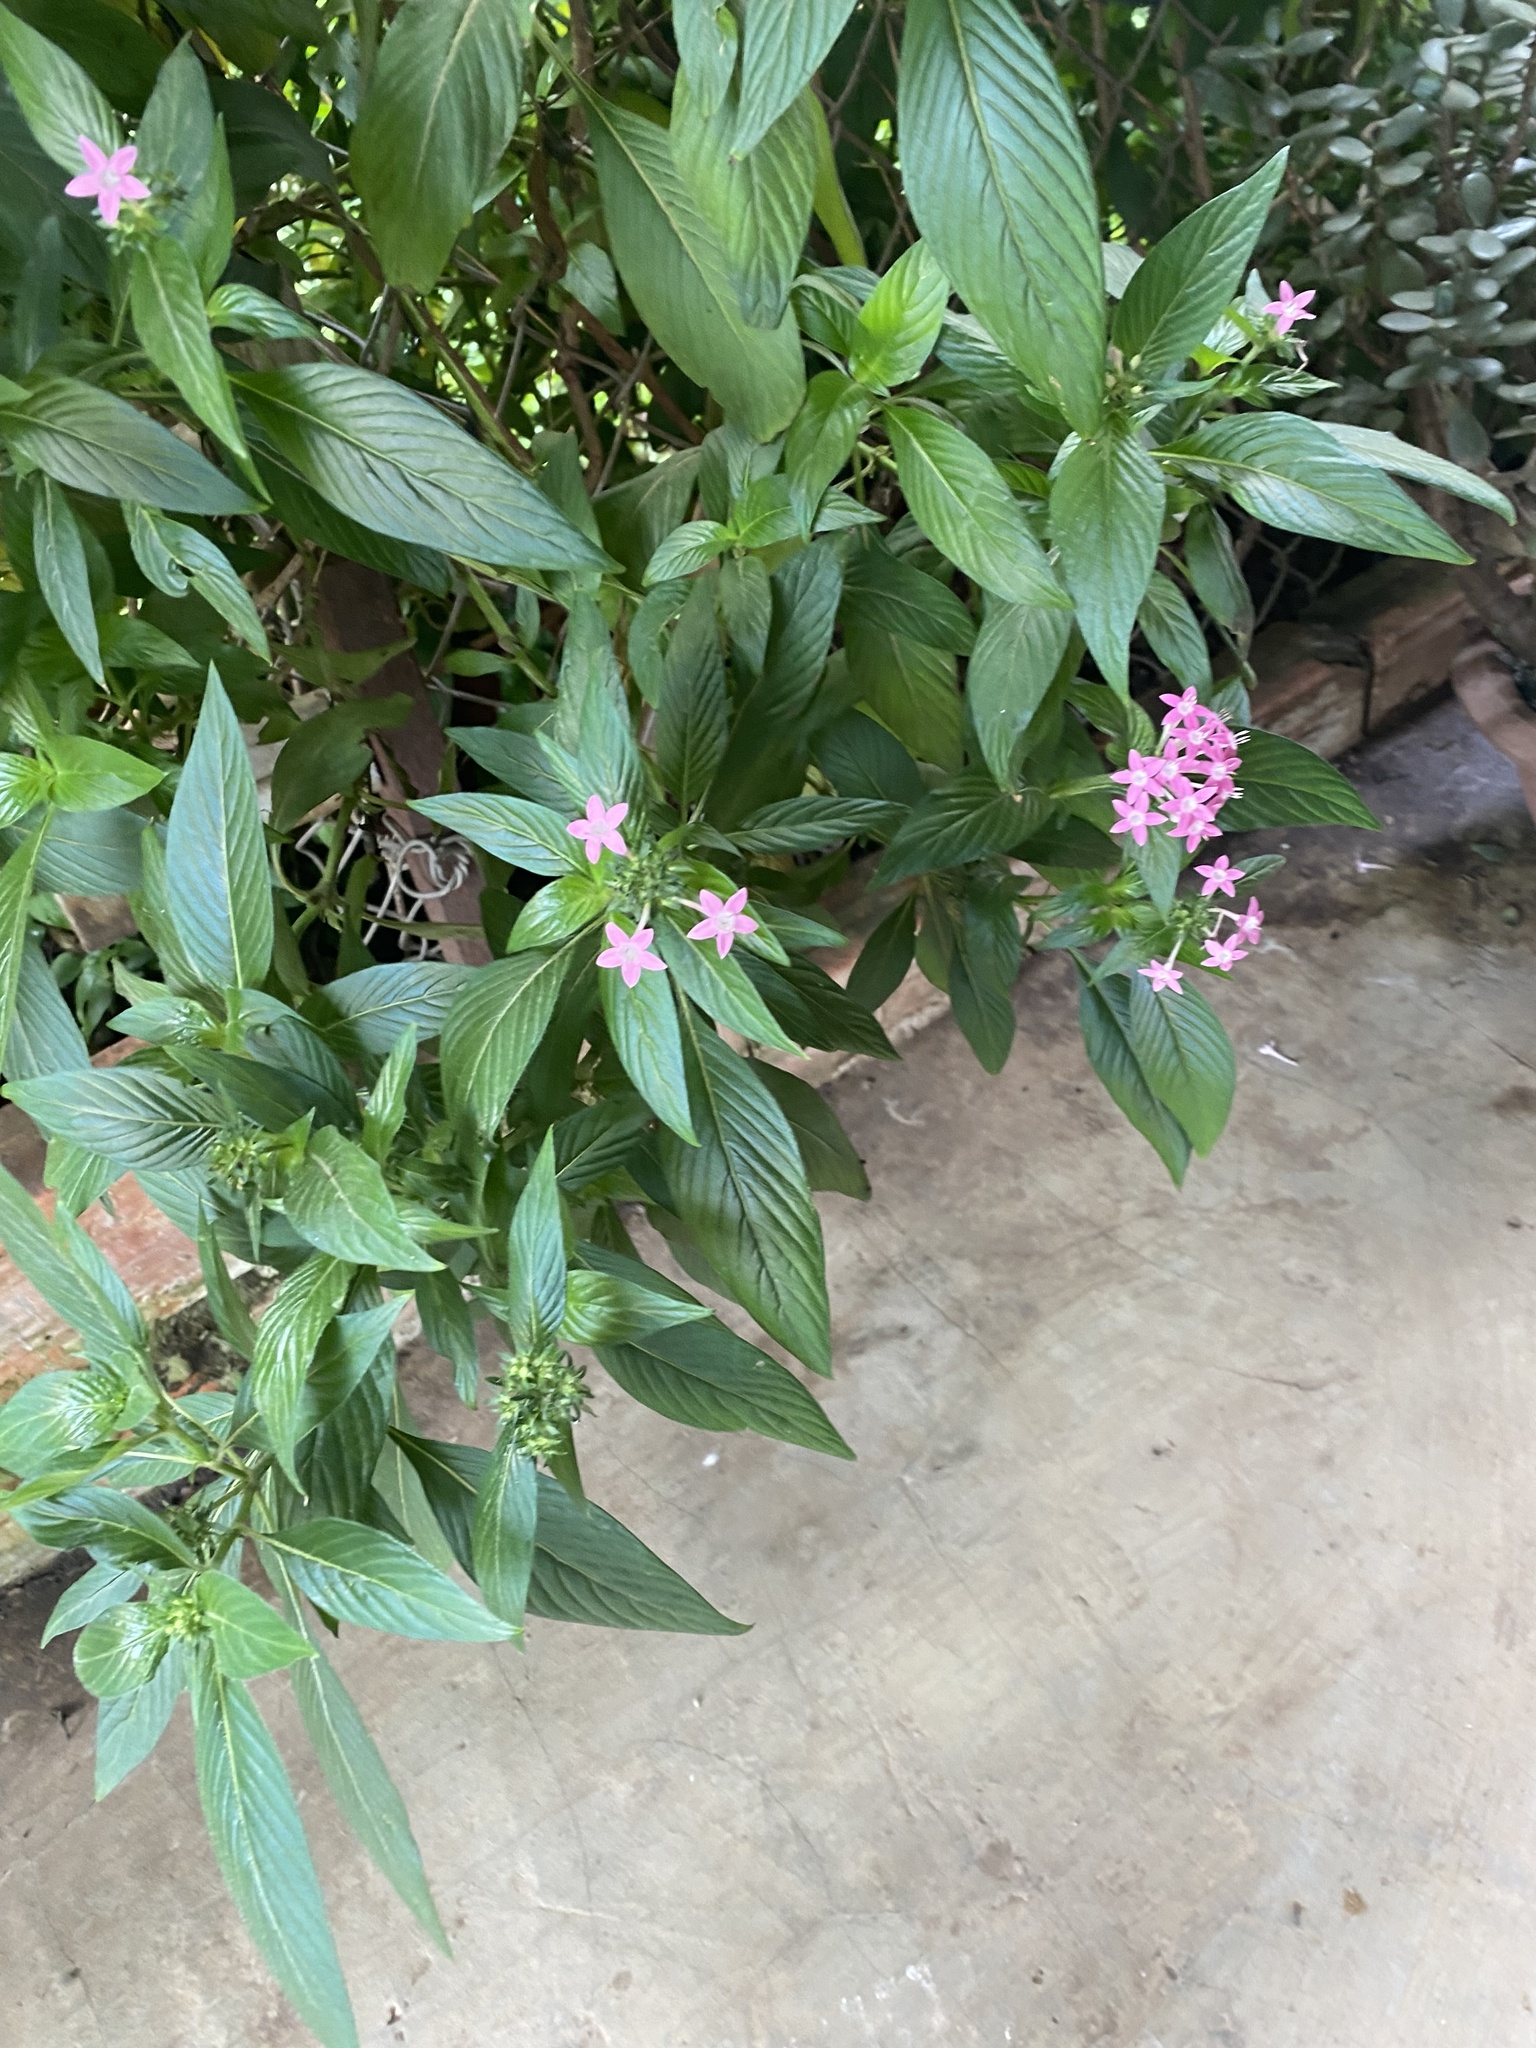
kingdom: Plantae
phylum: Tracheophyta
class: Magnoliopsida
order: Gentianales
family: Rubiaceae
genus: Pentas
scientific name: Pentas lanceolata
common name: Egyptian starcluster
